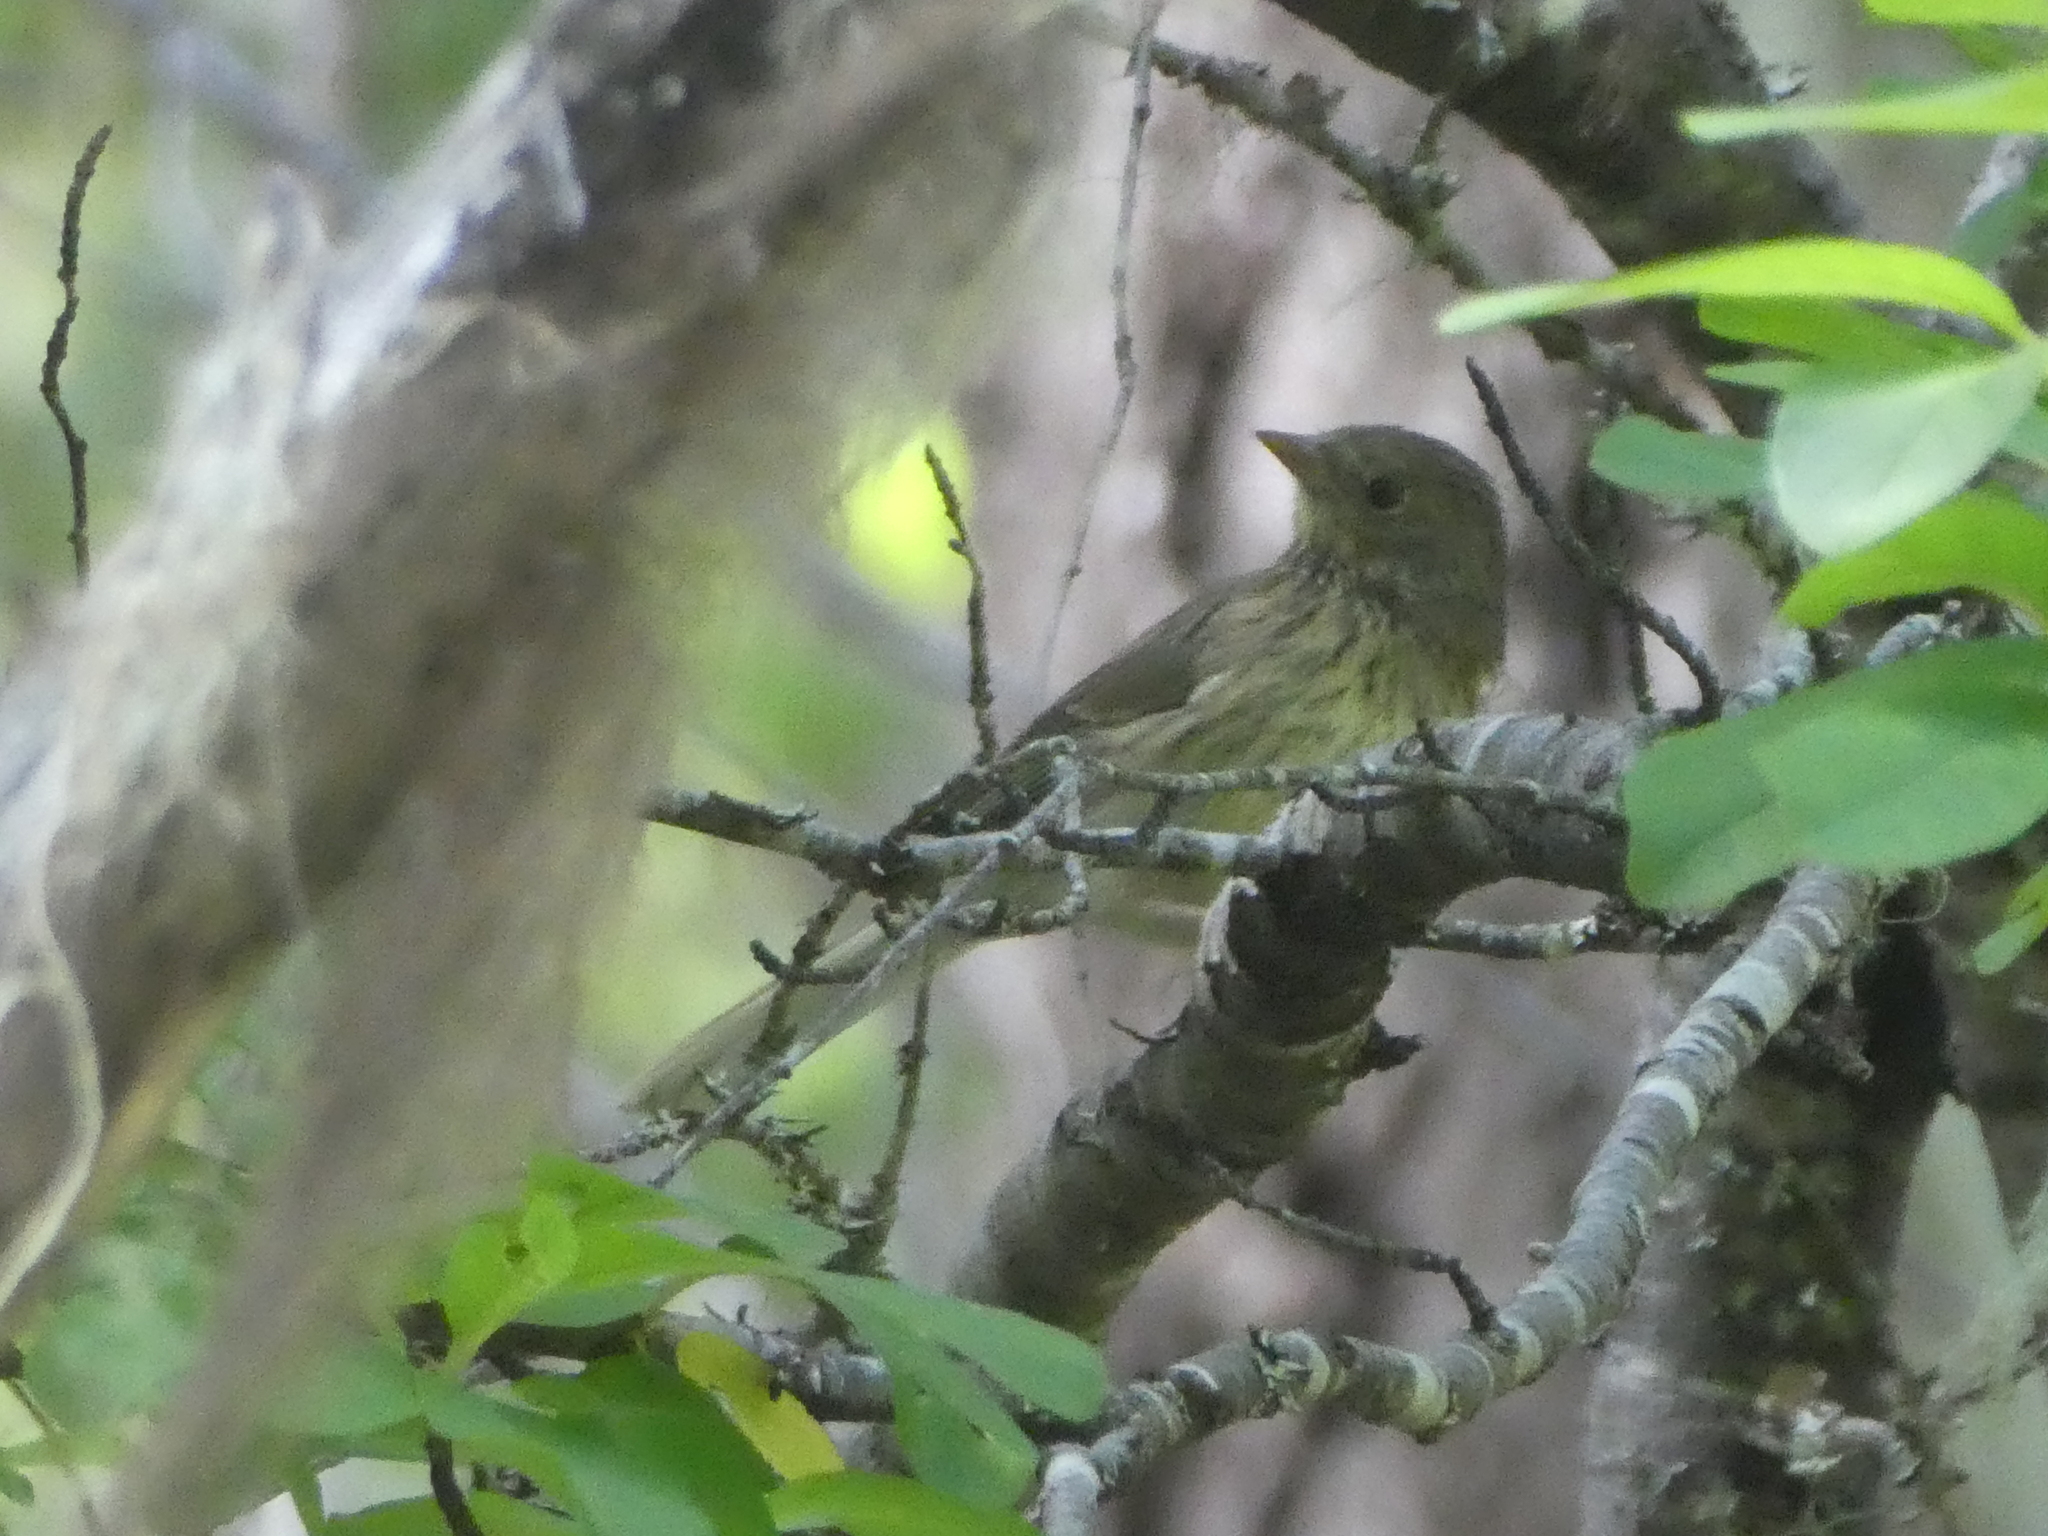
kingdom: Animalia
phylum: Chordata
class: Aves
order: Passeriformes
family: Passerellidae
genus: Junco
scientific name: Junco hyemalis
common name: Dark-eyed junco
